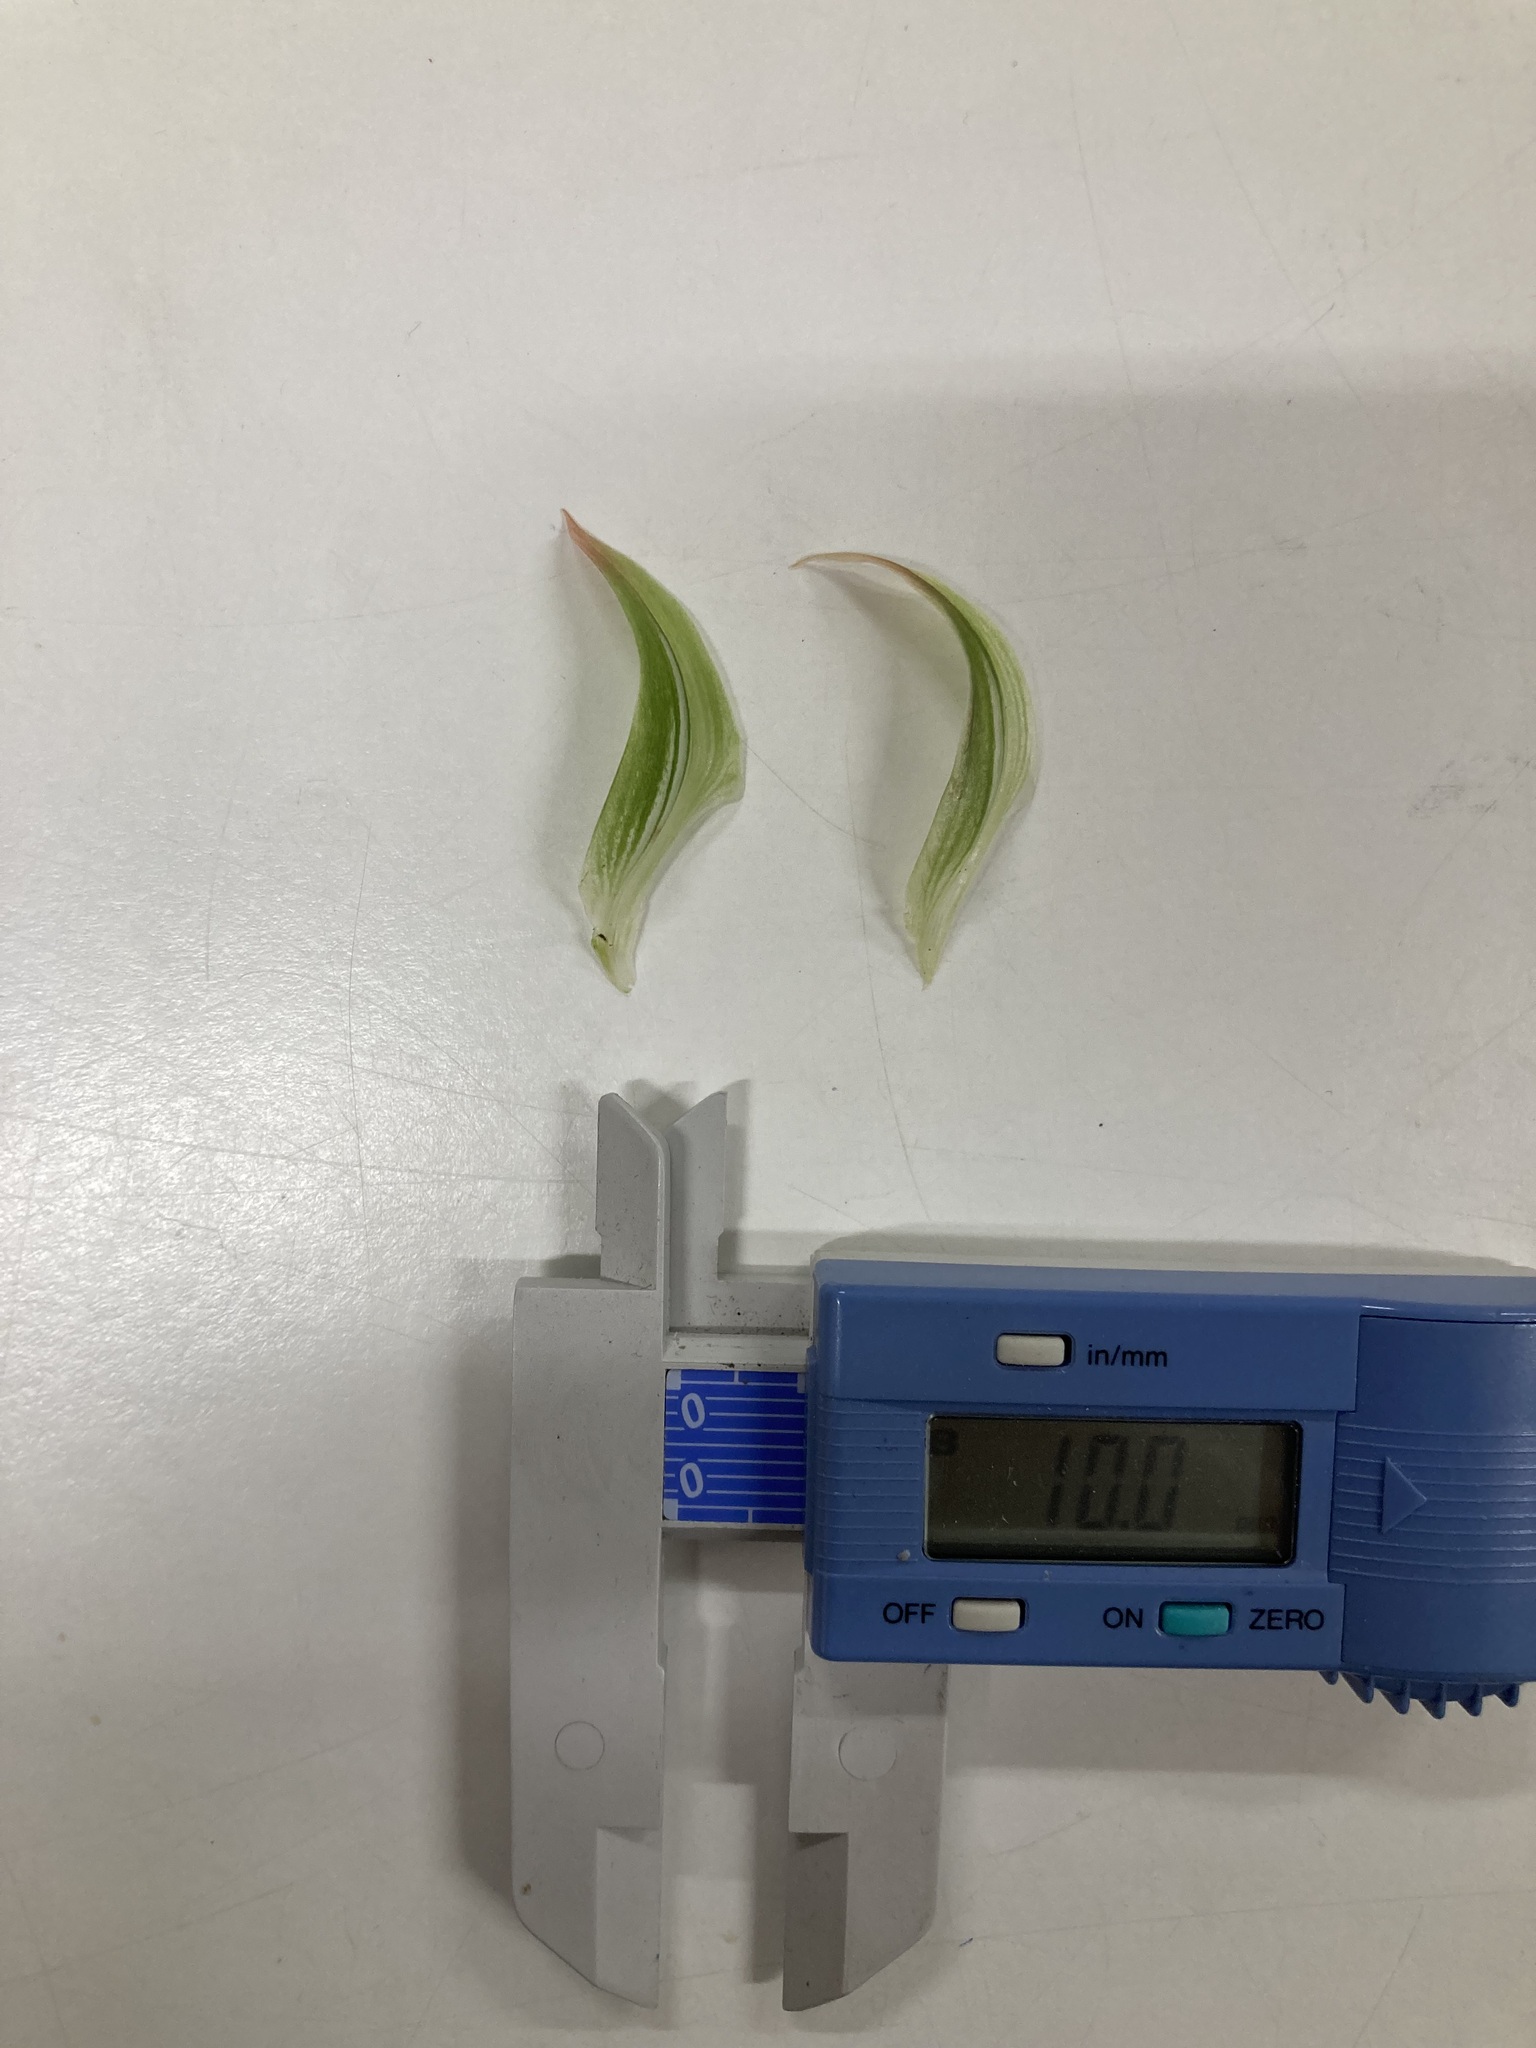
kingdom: Plantae
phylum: Tracheophyta
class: Liliopsida
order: Asparagales
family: Orchidaceae
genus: Pterostylis
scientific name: Pterostylis banksii
